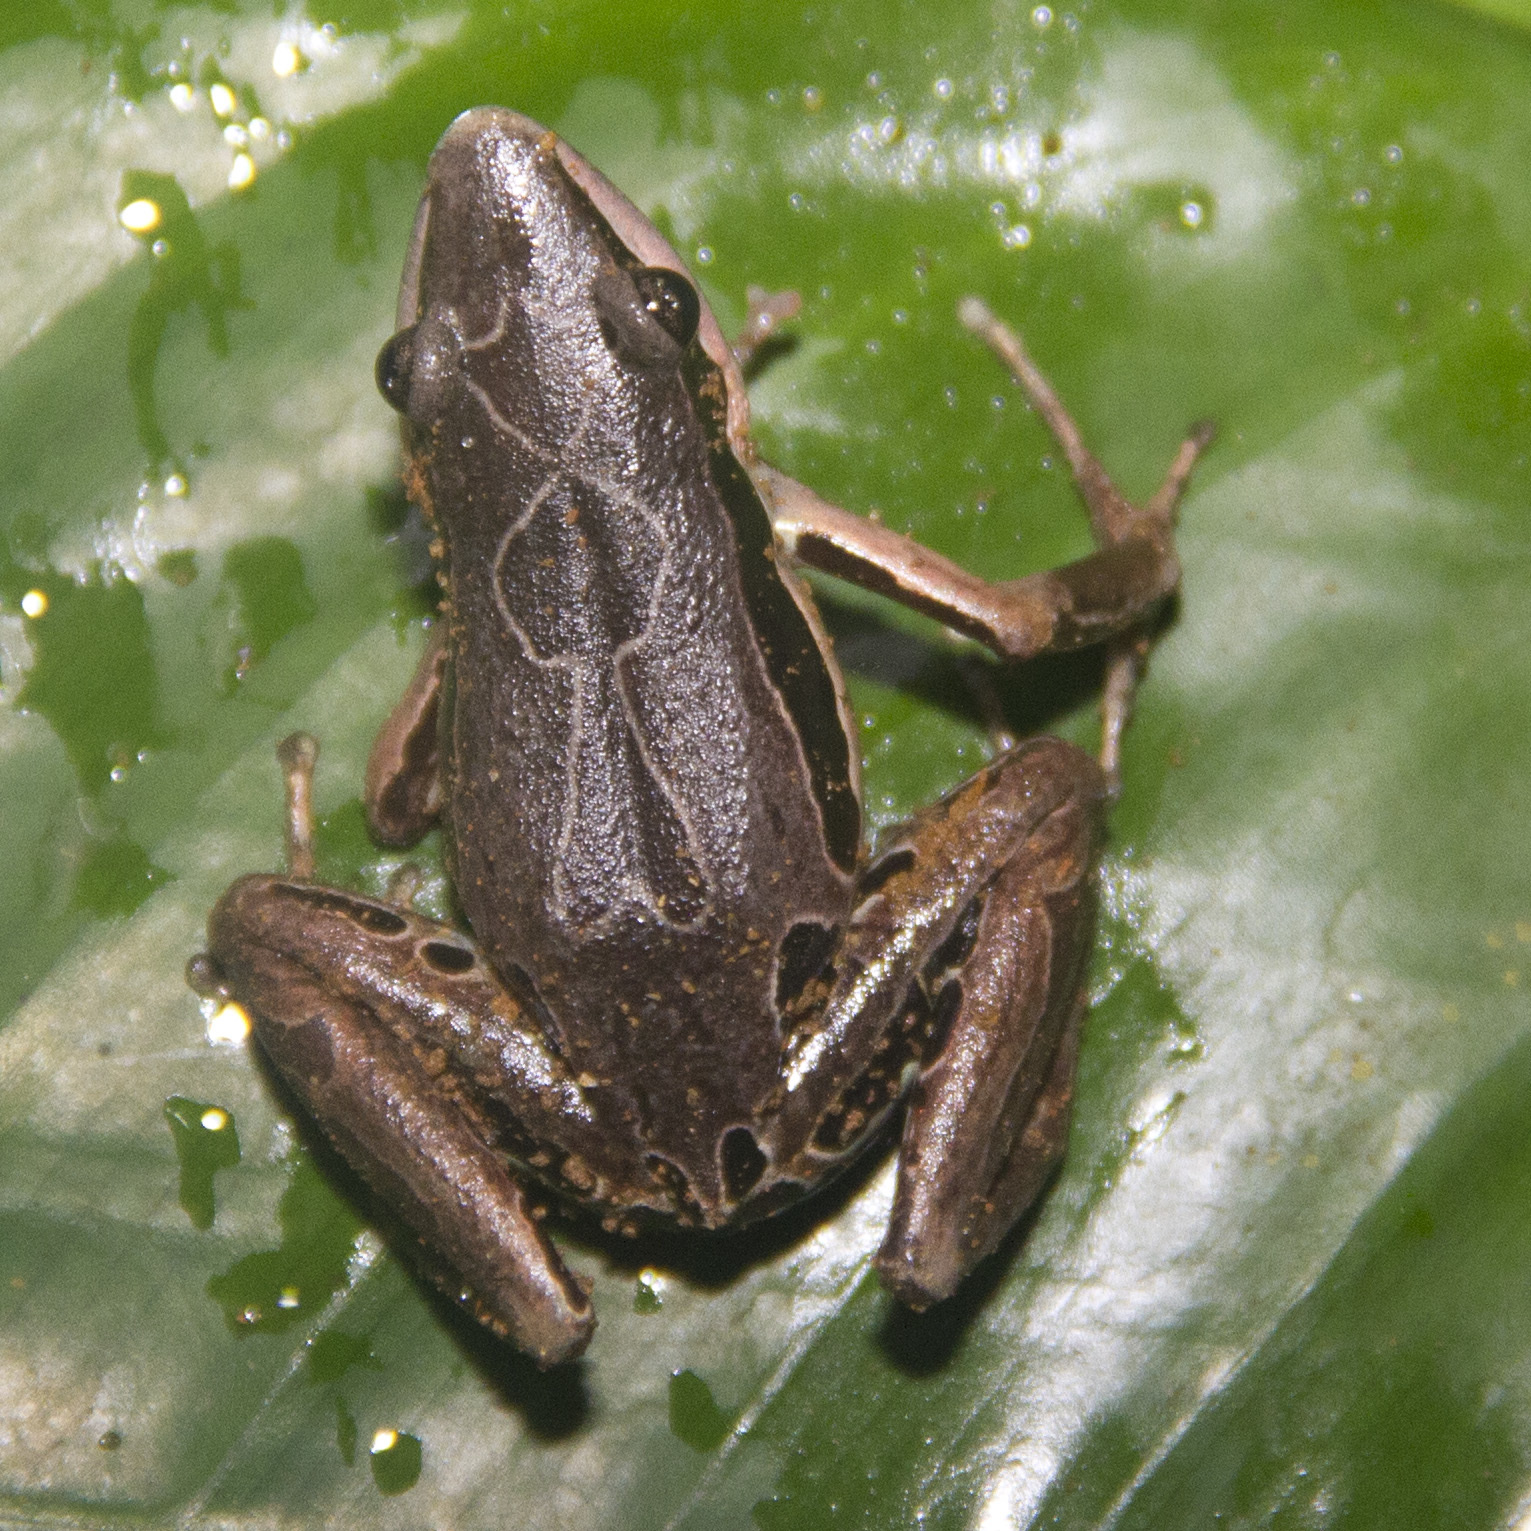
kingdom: Animalia
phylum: Chordata
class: Amphibia
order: Anura
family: Arthroleptidae
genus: Cardioglossa
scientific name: Cardioglossa gracilis
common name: Rio benito long-fingered frog
